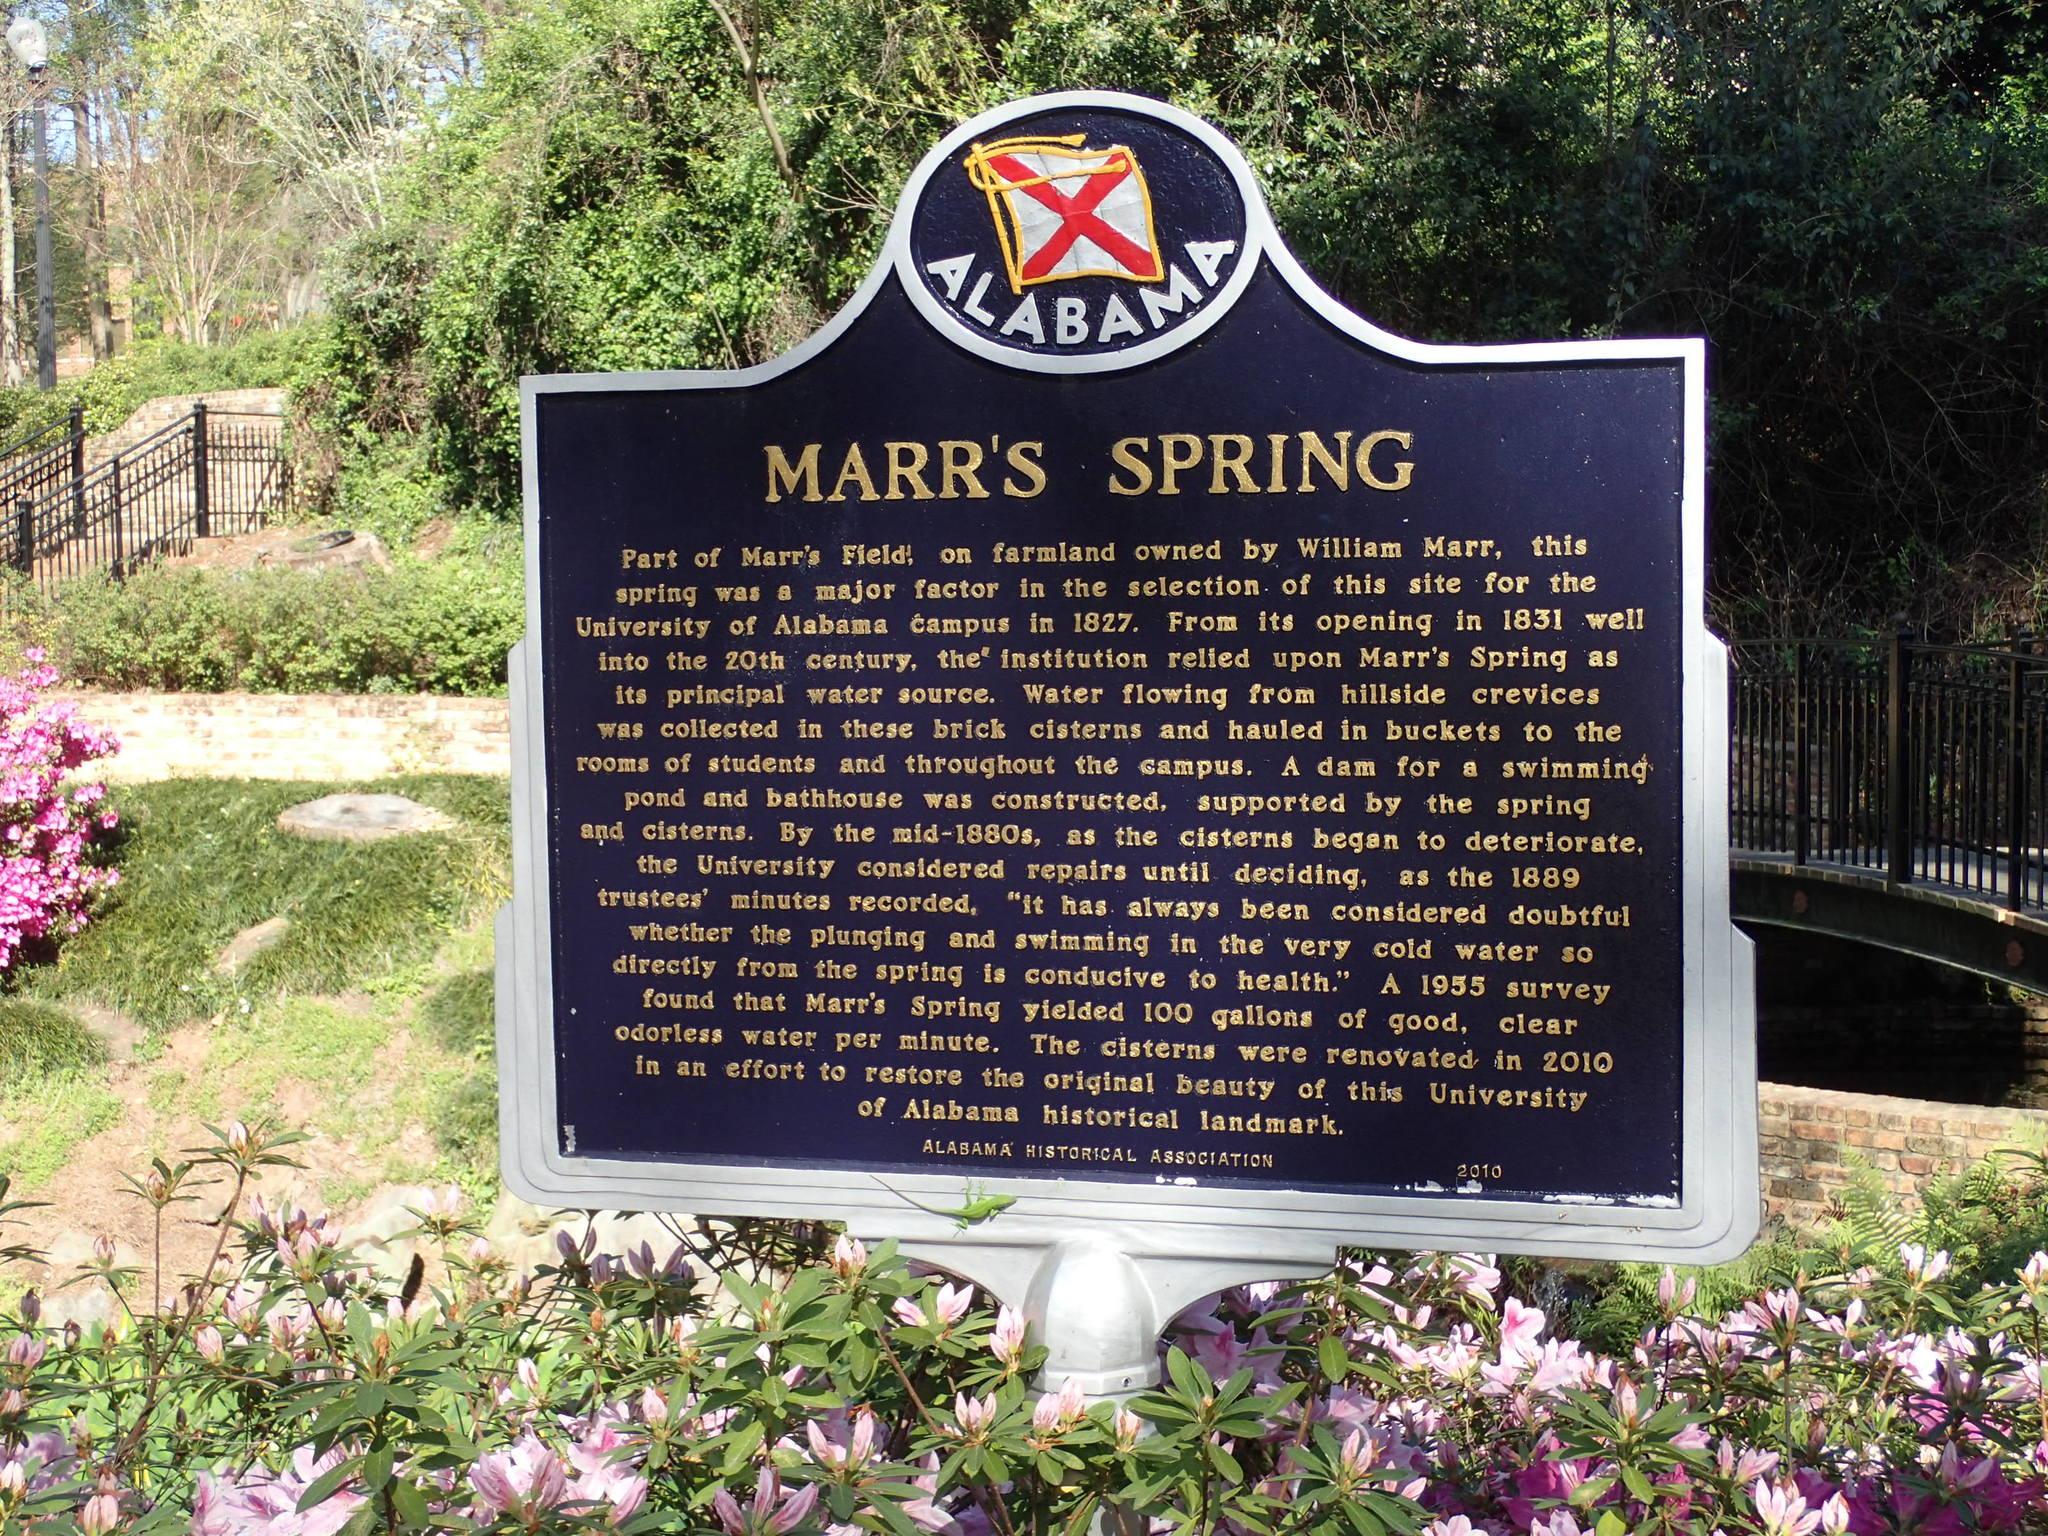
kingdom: Animalia
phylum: Chordata
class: Squamata
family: Dactyloidae
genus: Anolis
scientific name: Anolis carolinensis
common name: Green anole
